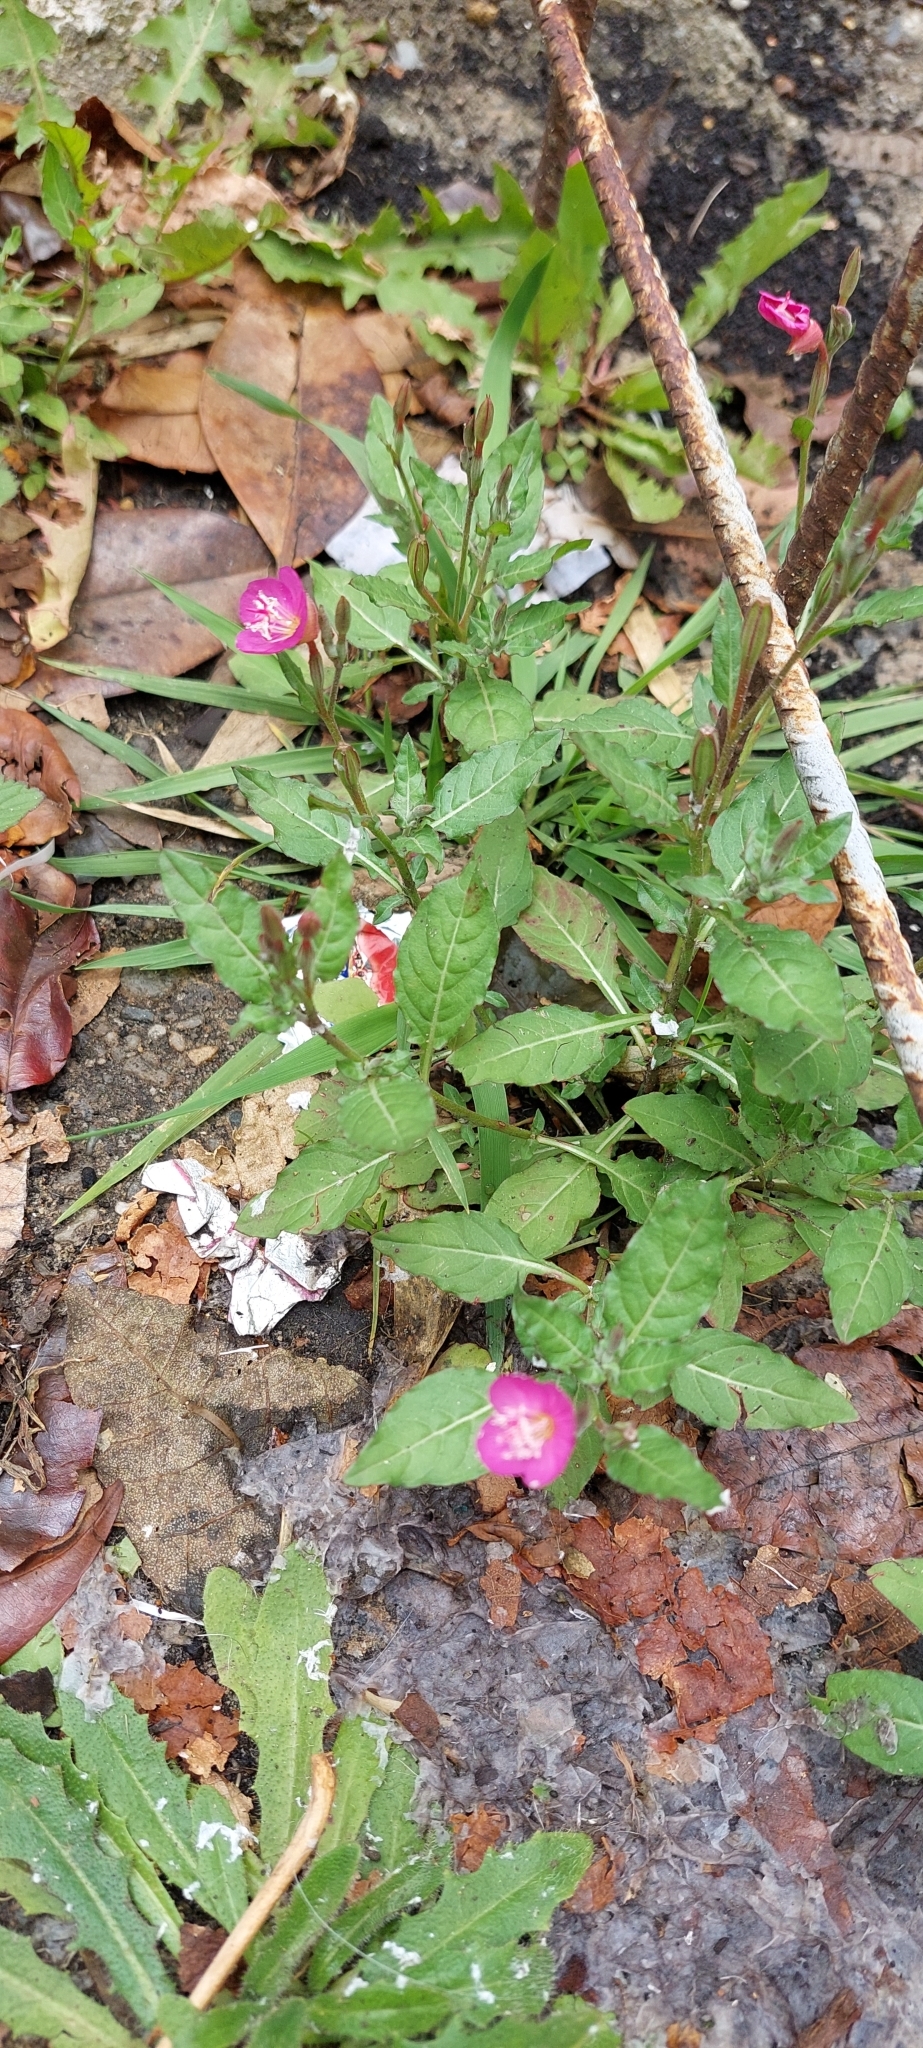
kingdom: Plantae
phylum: Tracheophyta
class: Magnoliopsida
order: Myrtales
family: Onagraceae
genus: Oenothera
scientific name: Oenothera rosea
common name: Rosy evening-primrose
